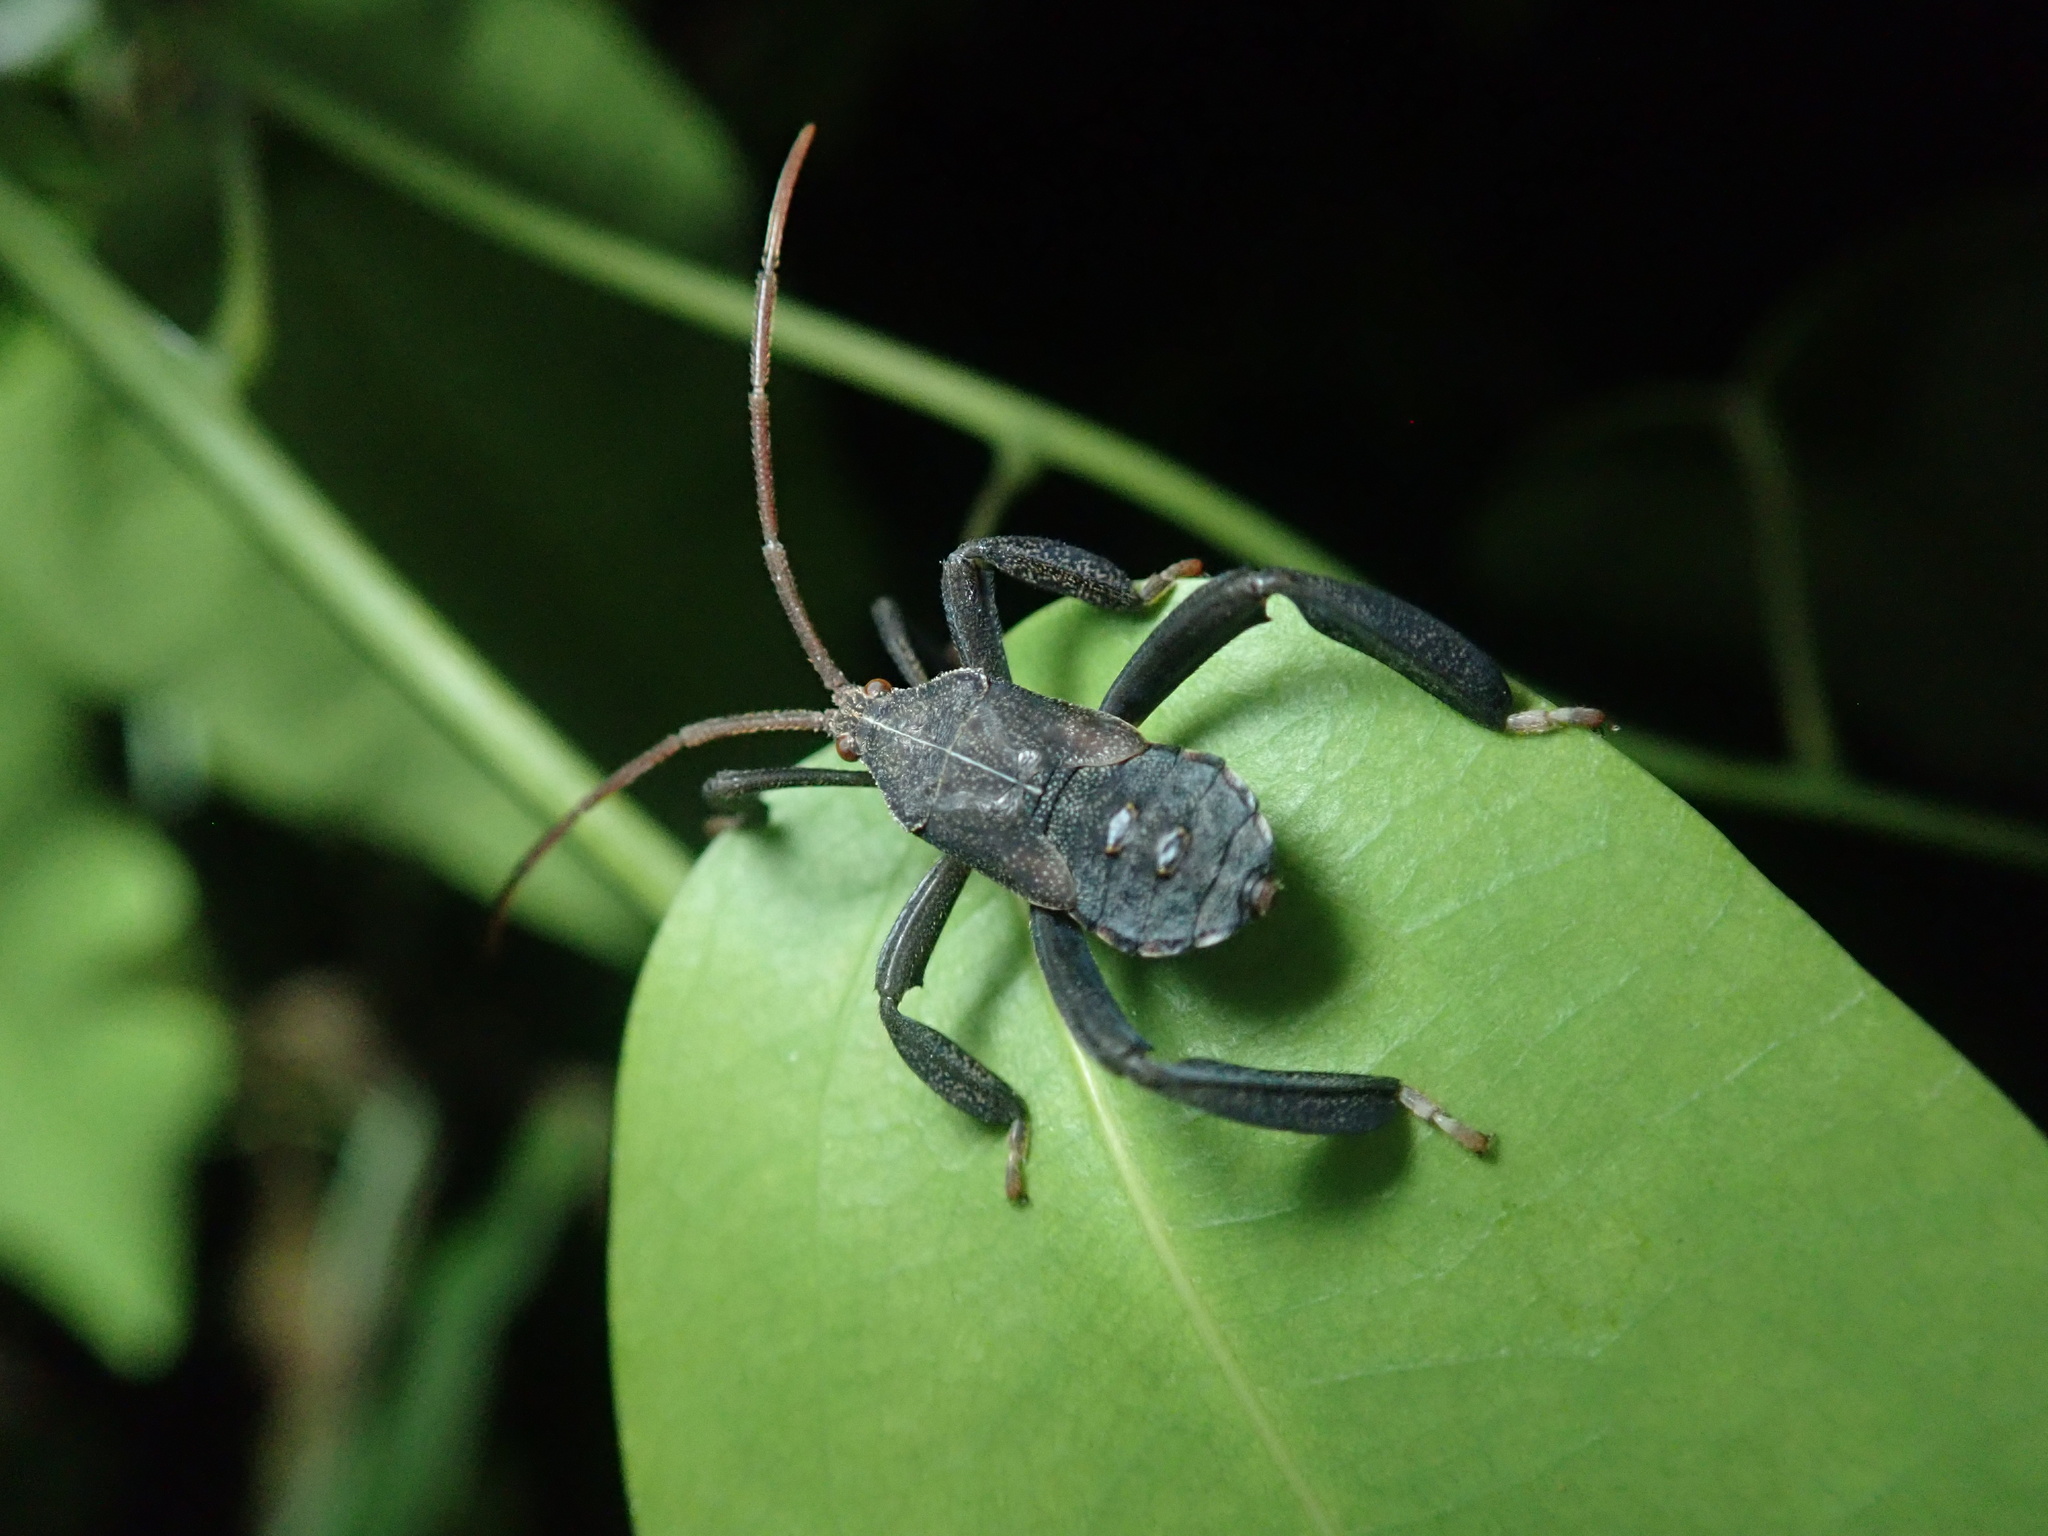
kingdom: Animalia
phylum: Arthropoda
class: Insecta
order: Hemiptera
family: Coreidae
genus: Pternistria
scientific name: Pternistria bispina
